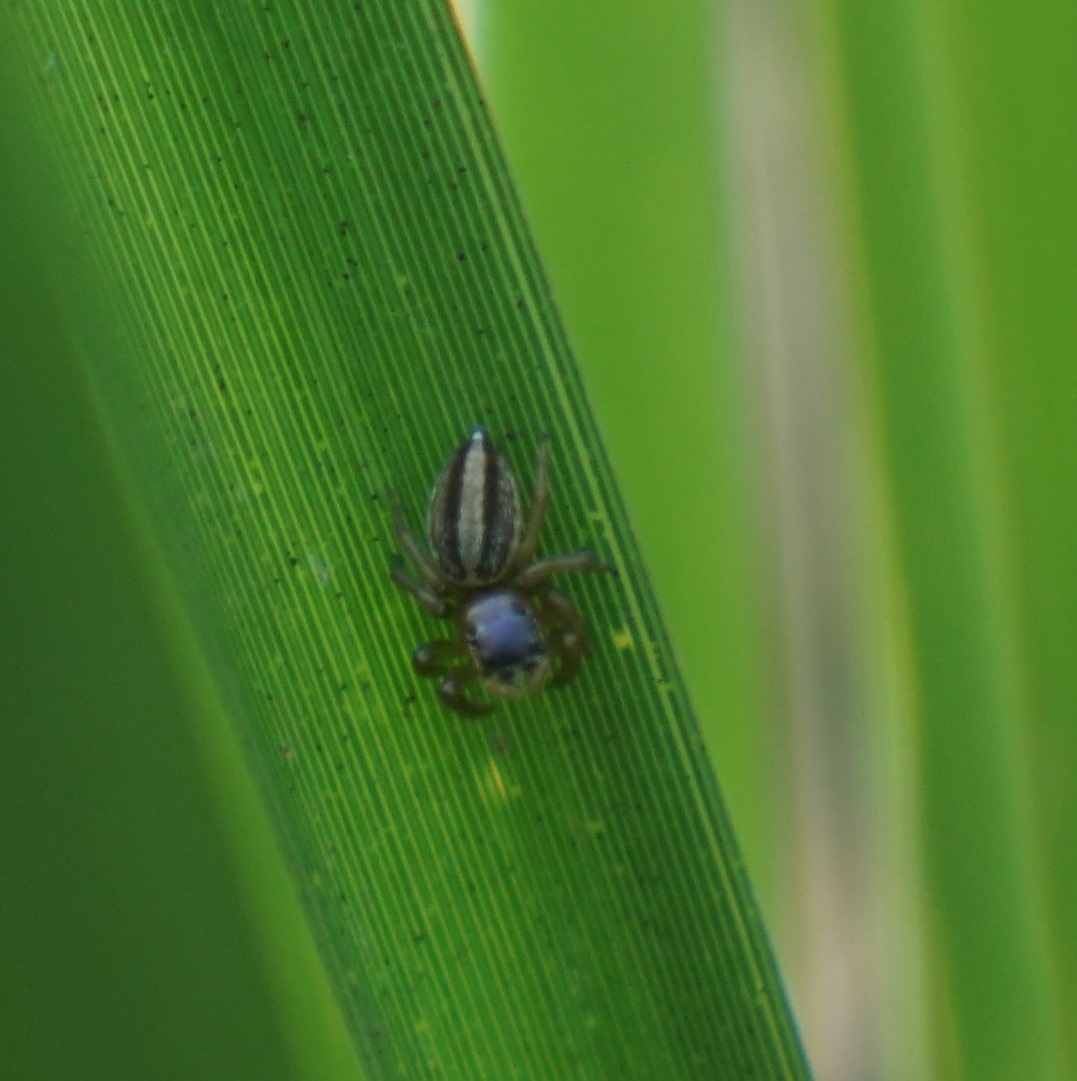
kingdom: Animalia
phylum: Arthropoda
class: Arachnida
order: Araneae
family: Salticidae
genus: Maratus
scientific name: Maratus scutulatus
